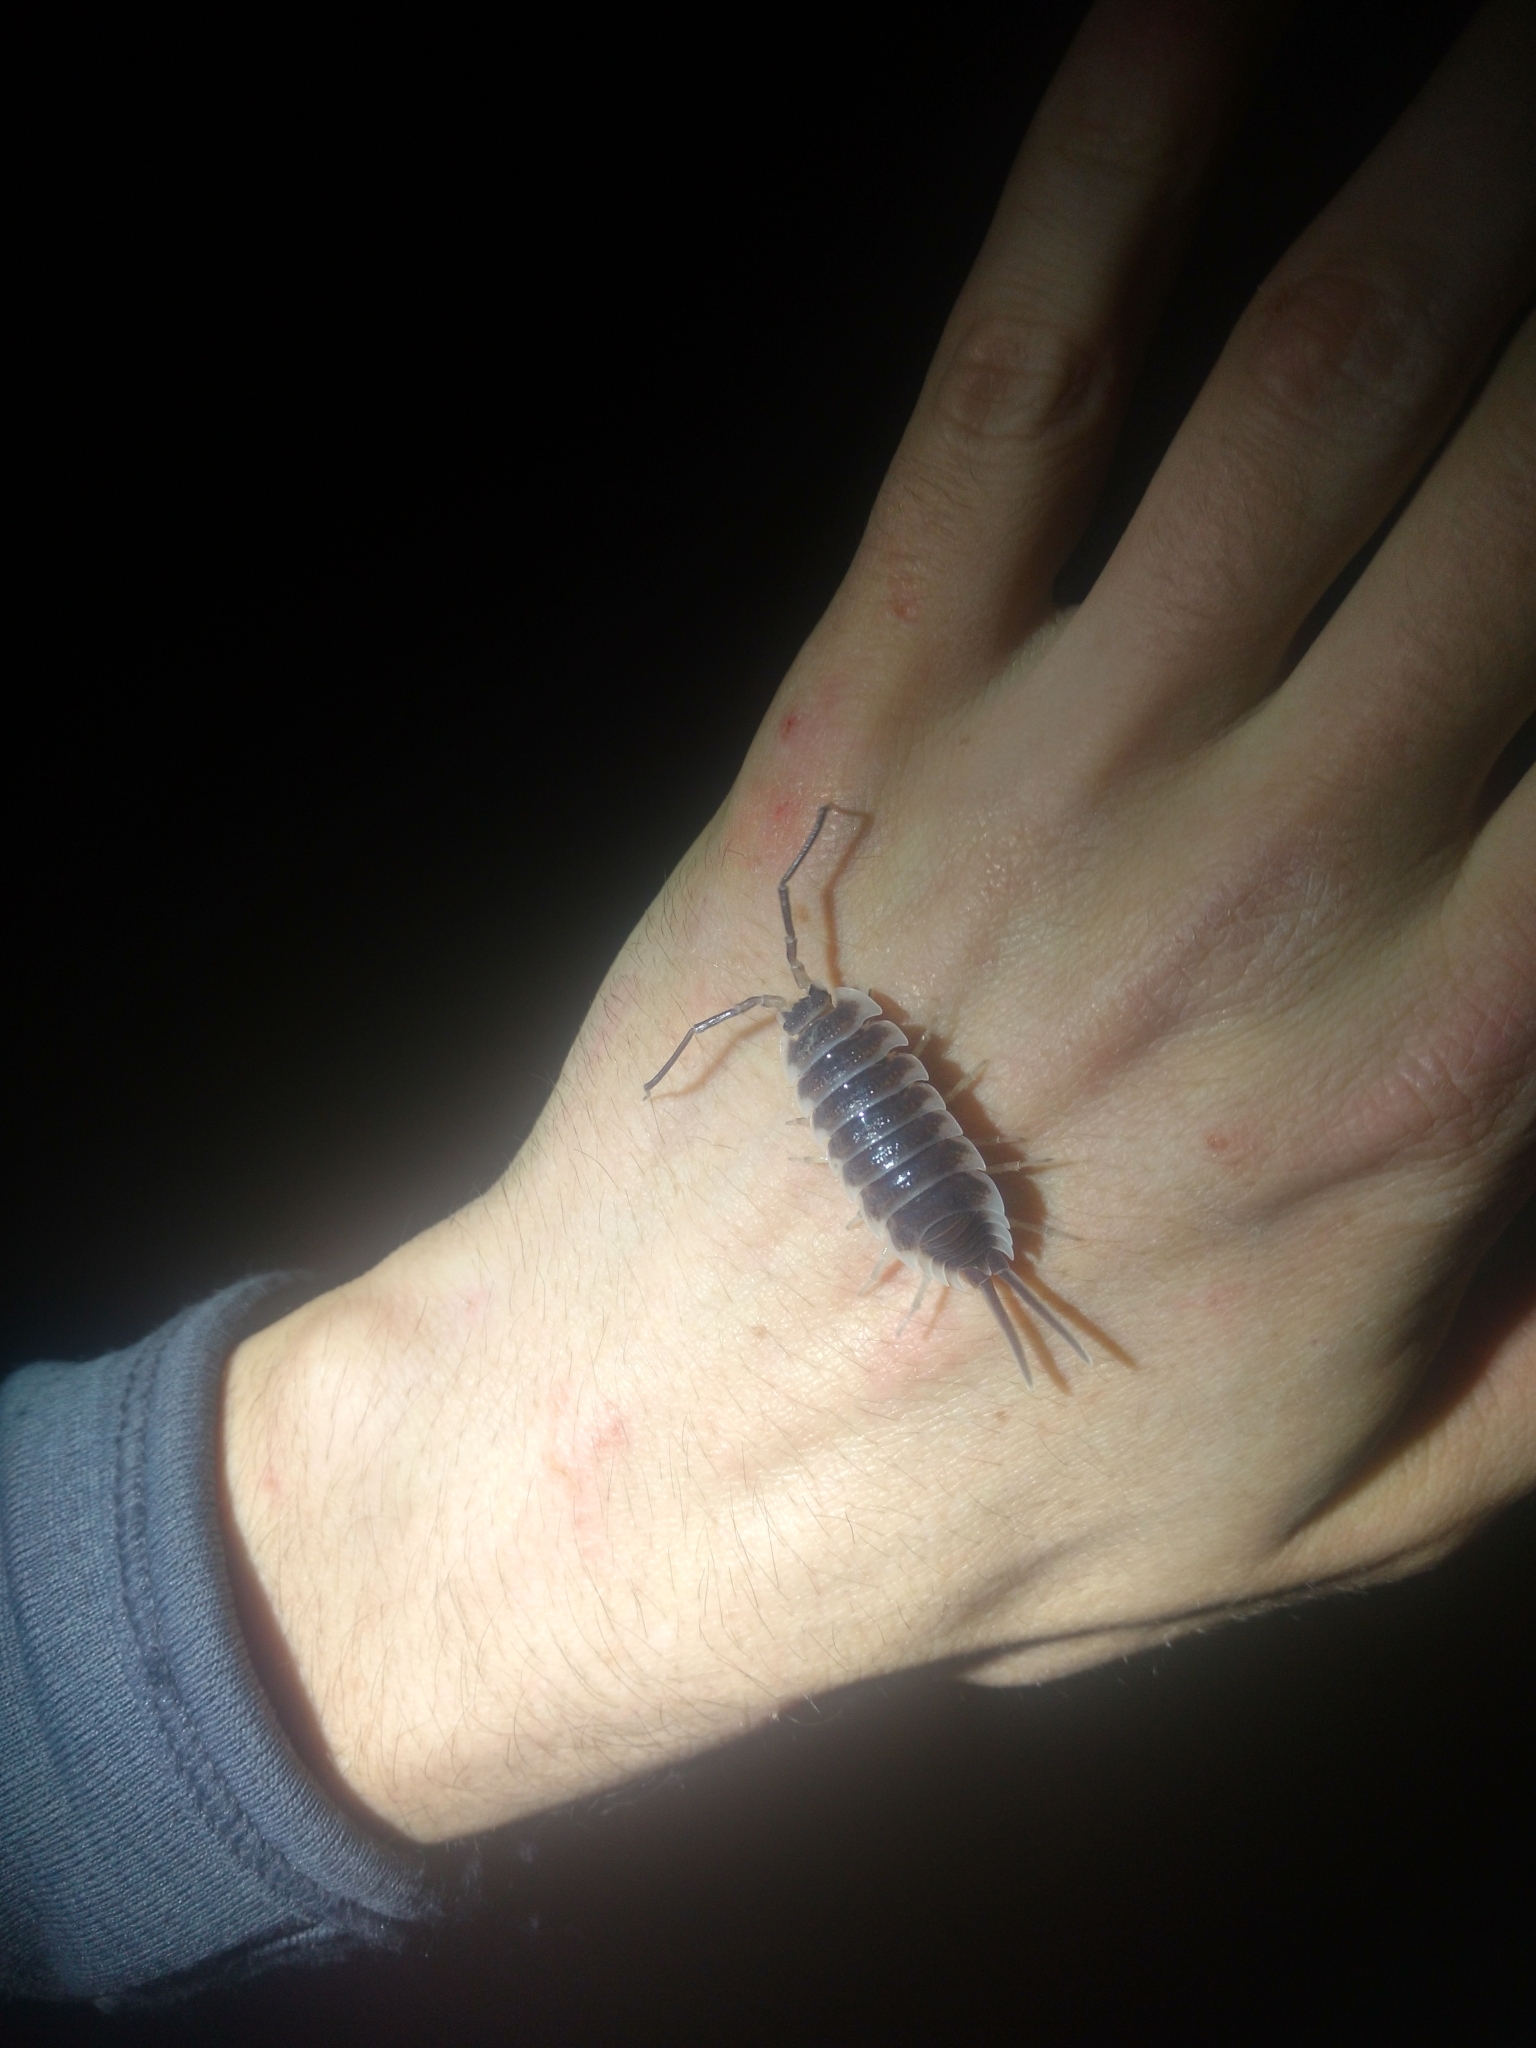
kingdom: Animalia
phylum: Arthropoda
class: Malacostraca
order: Isopoda
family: Porcellionidae
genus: Porcellio
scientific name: Porcellio hoffmannseggii
